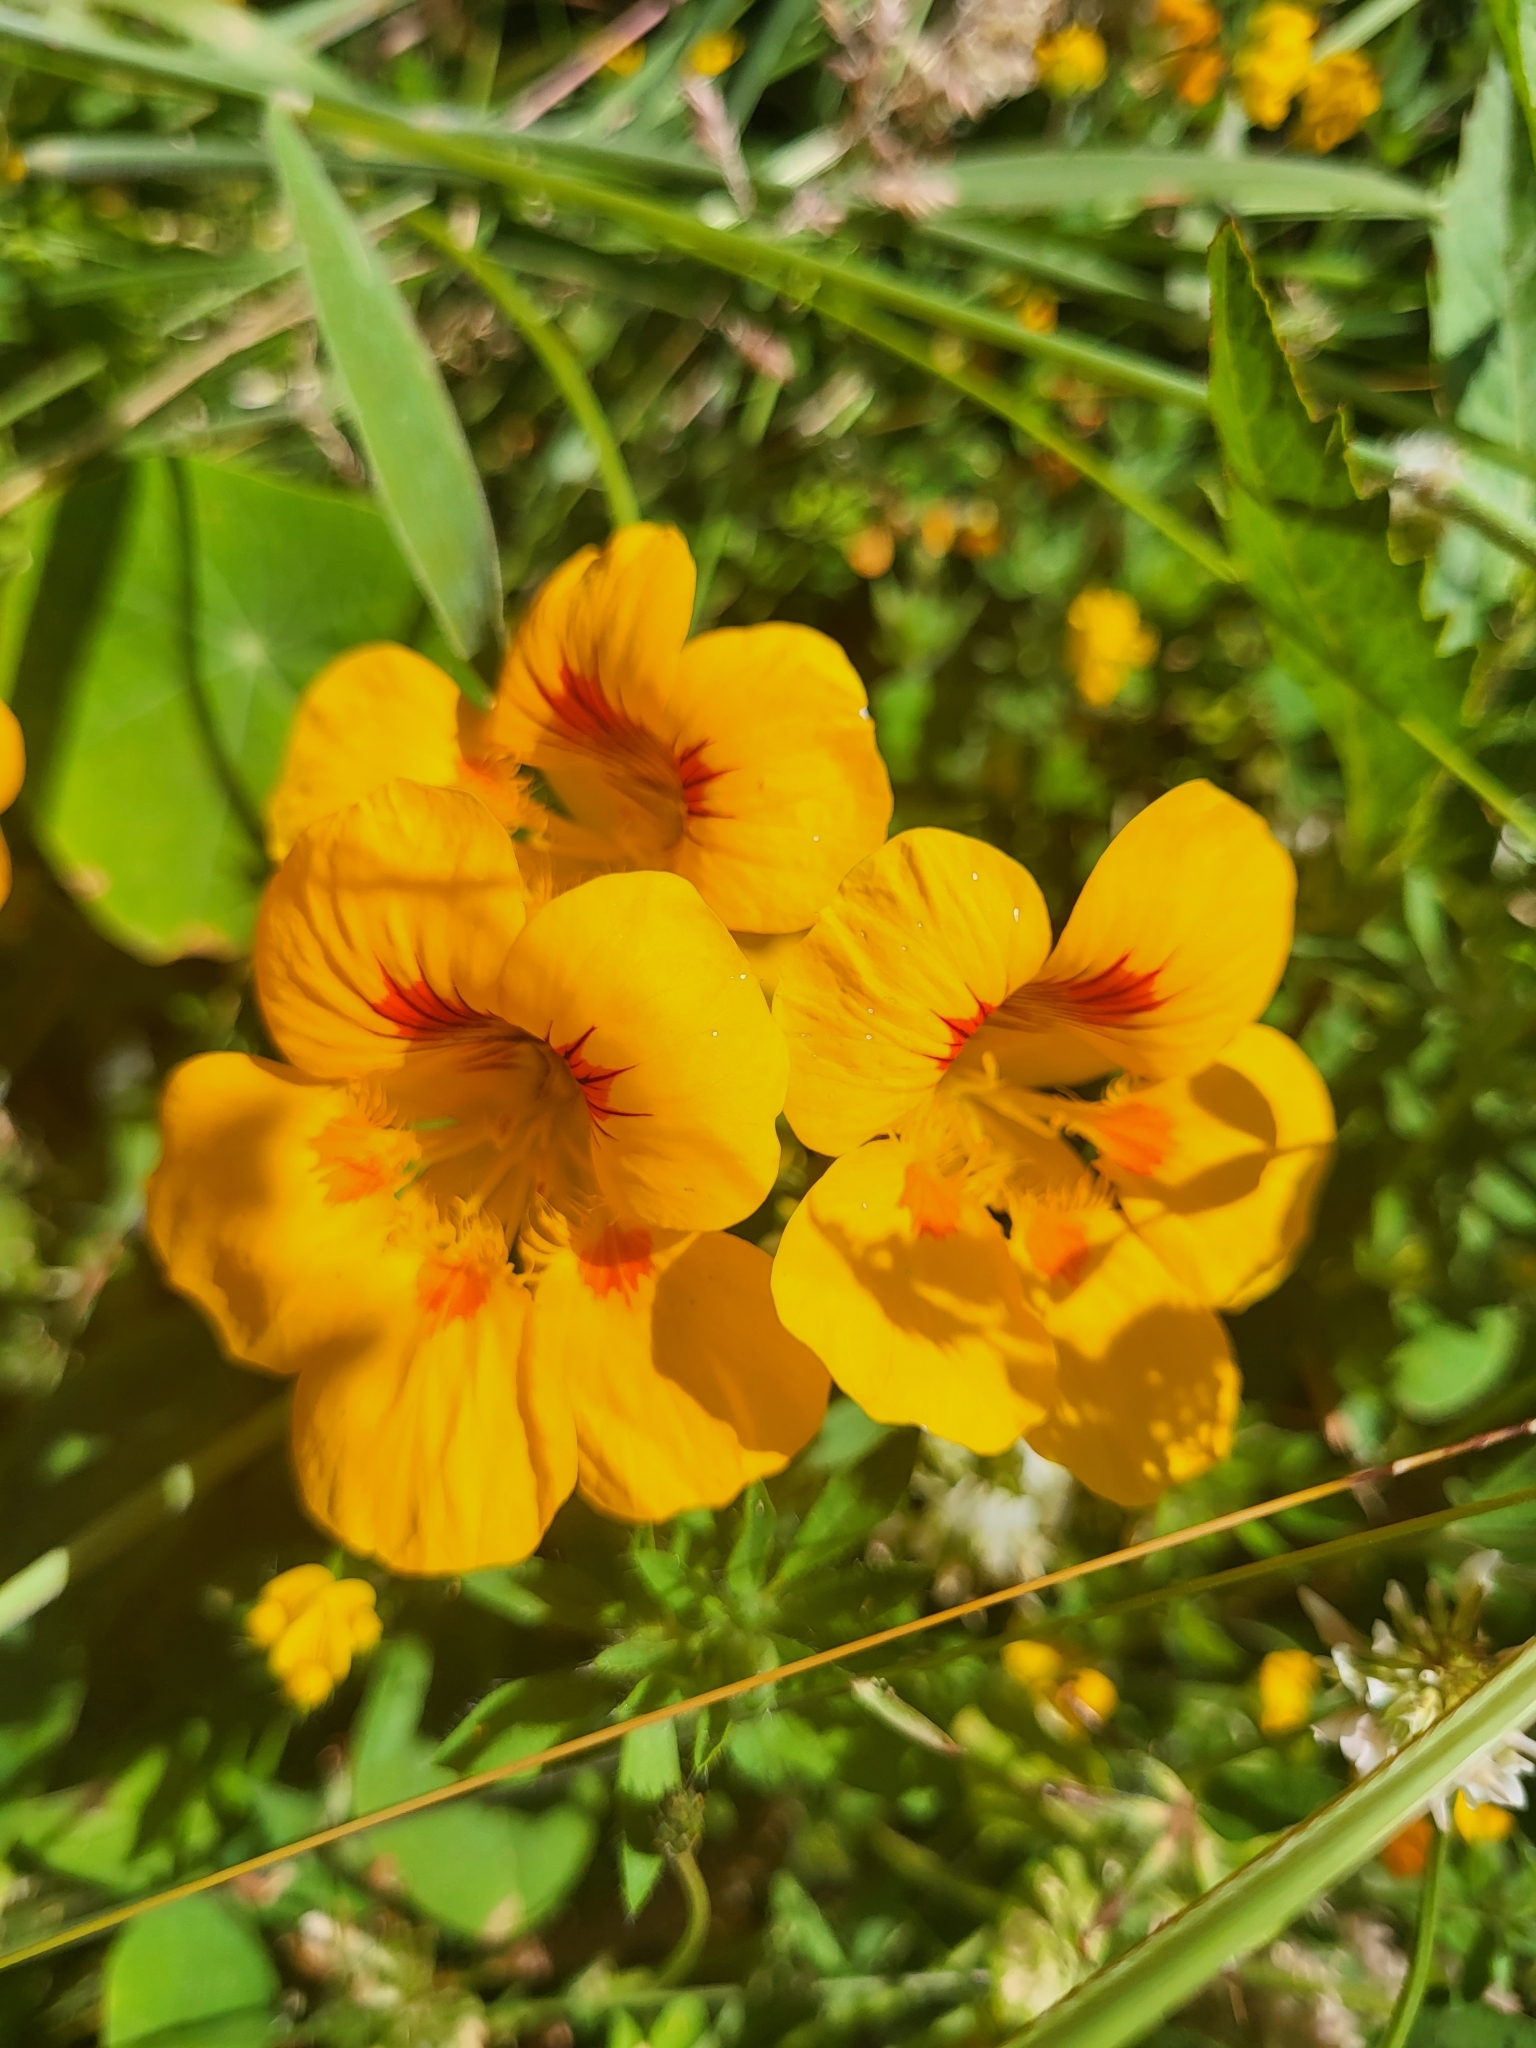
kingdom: Plantae
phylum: Tracheophyta
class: Magnoliopsida
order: Brassicales
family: Tropaeolaceae
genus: Tropaeolum
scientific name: Tropaeolum majus
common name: Nasturtium
